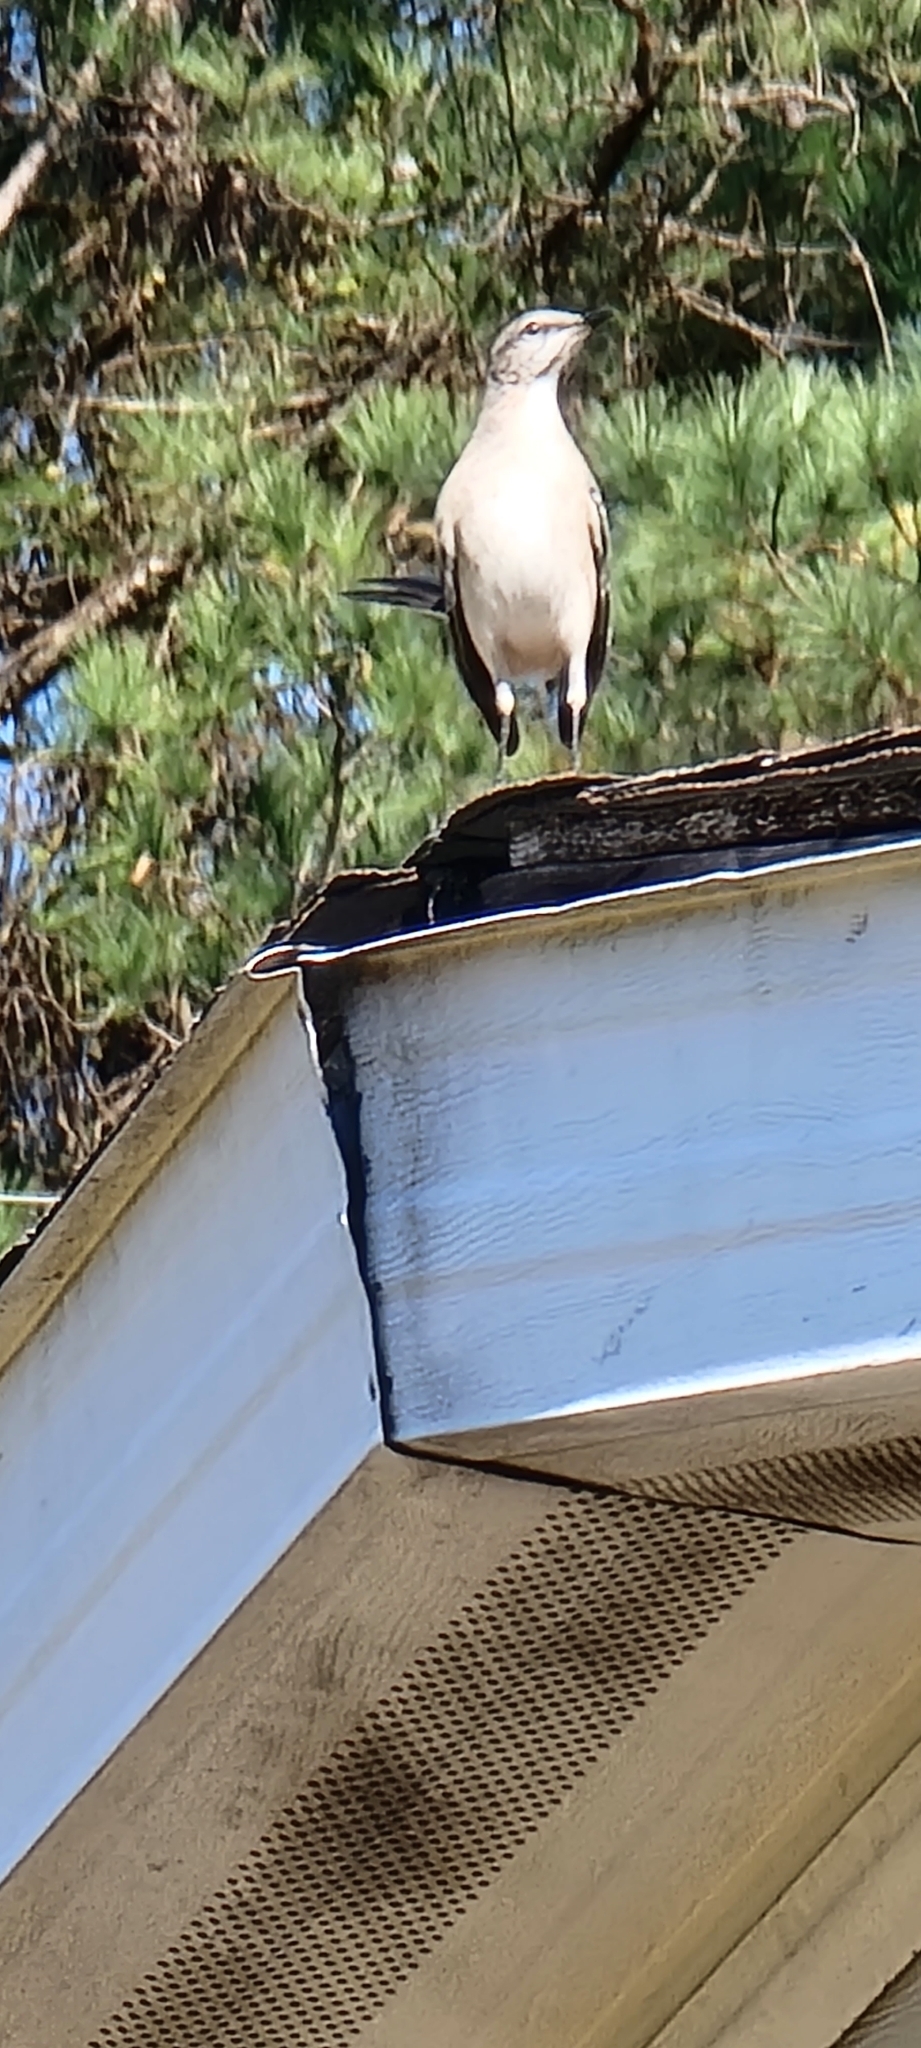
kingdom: Animalia
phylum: Chordata
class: Aves
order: Passeriformes
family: Mimidae
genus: Mimus
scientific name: Mimus polyglottos
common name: Northern mockingbird
